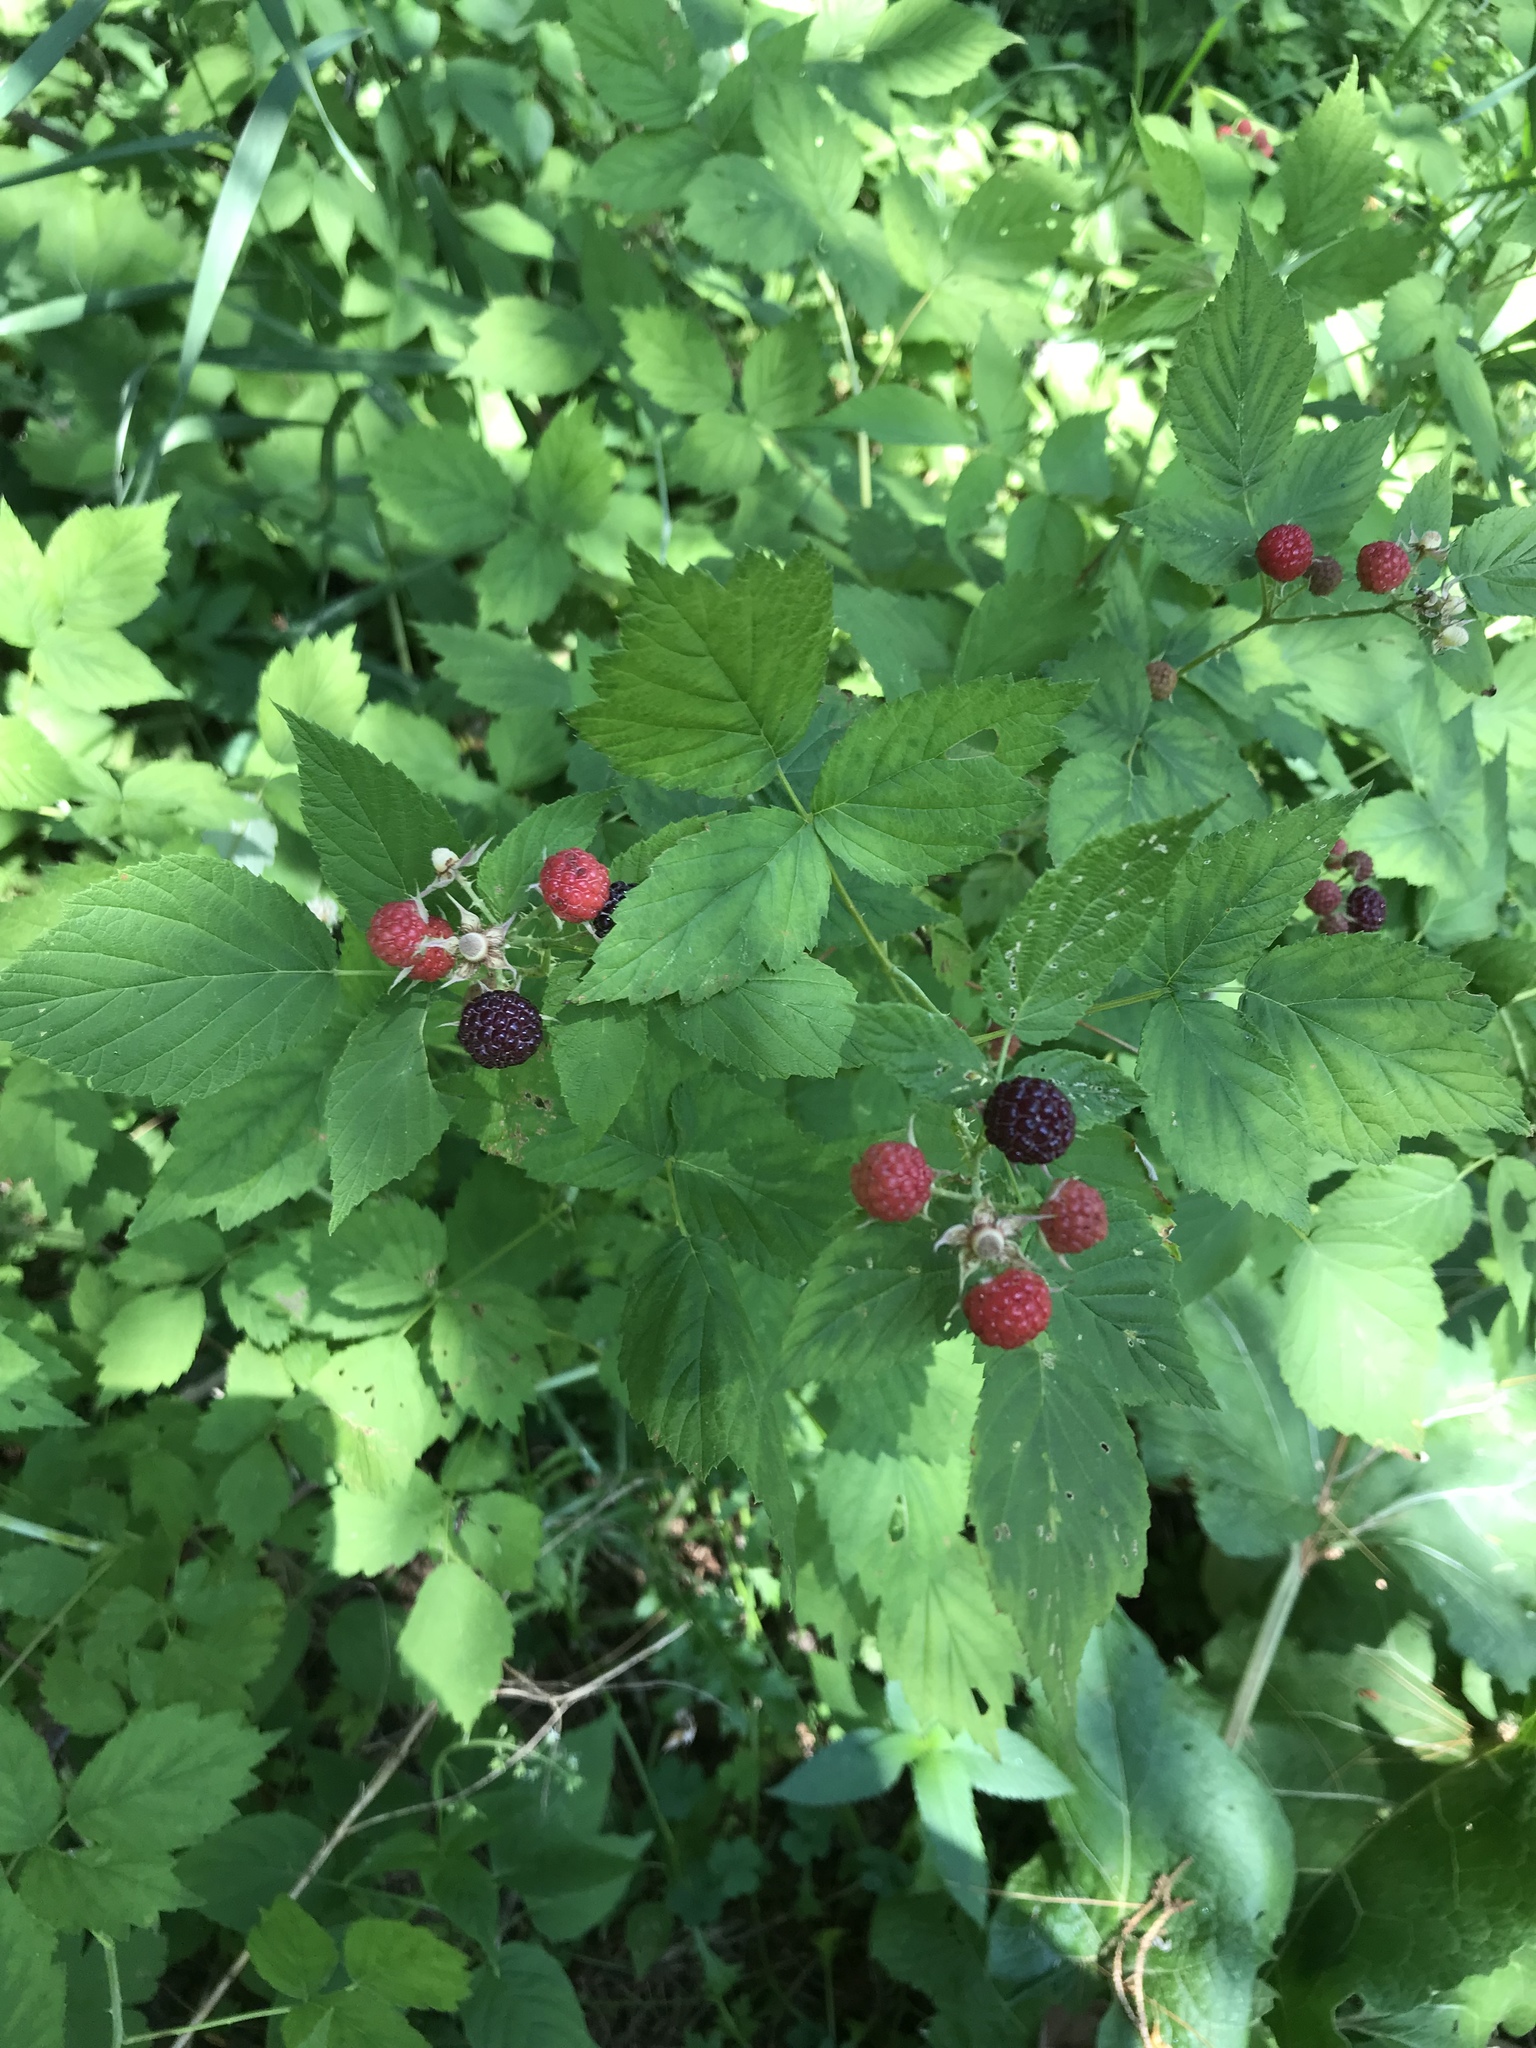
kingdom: Plantae
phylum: Tracheophyta
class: Magnoliopsida
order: Rosales
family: Rosaceae
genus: Rubus
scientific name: Rubus occidentalis
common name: Black raspberry
